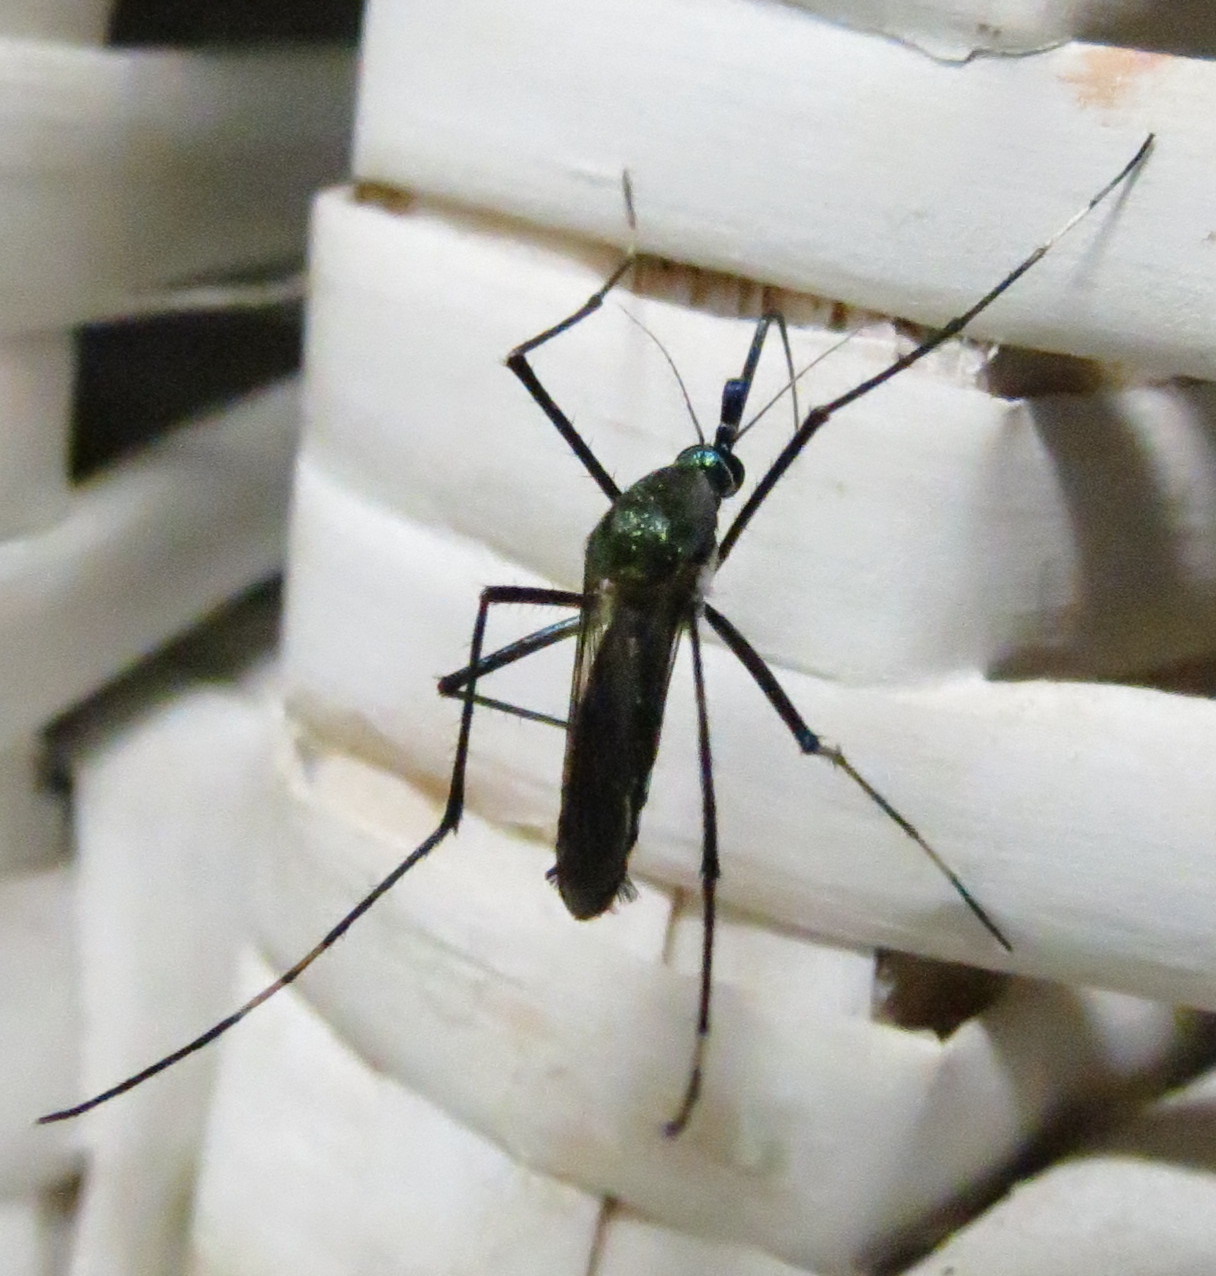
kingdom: Animalia
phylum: Arthropoda
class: Insecta
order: Diptera
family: Culicidae
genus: Toxorhynchites
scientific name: Toxorhynchites brevipalpis
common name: Mosquito
